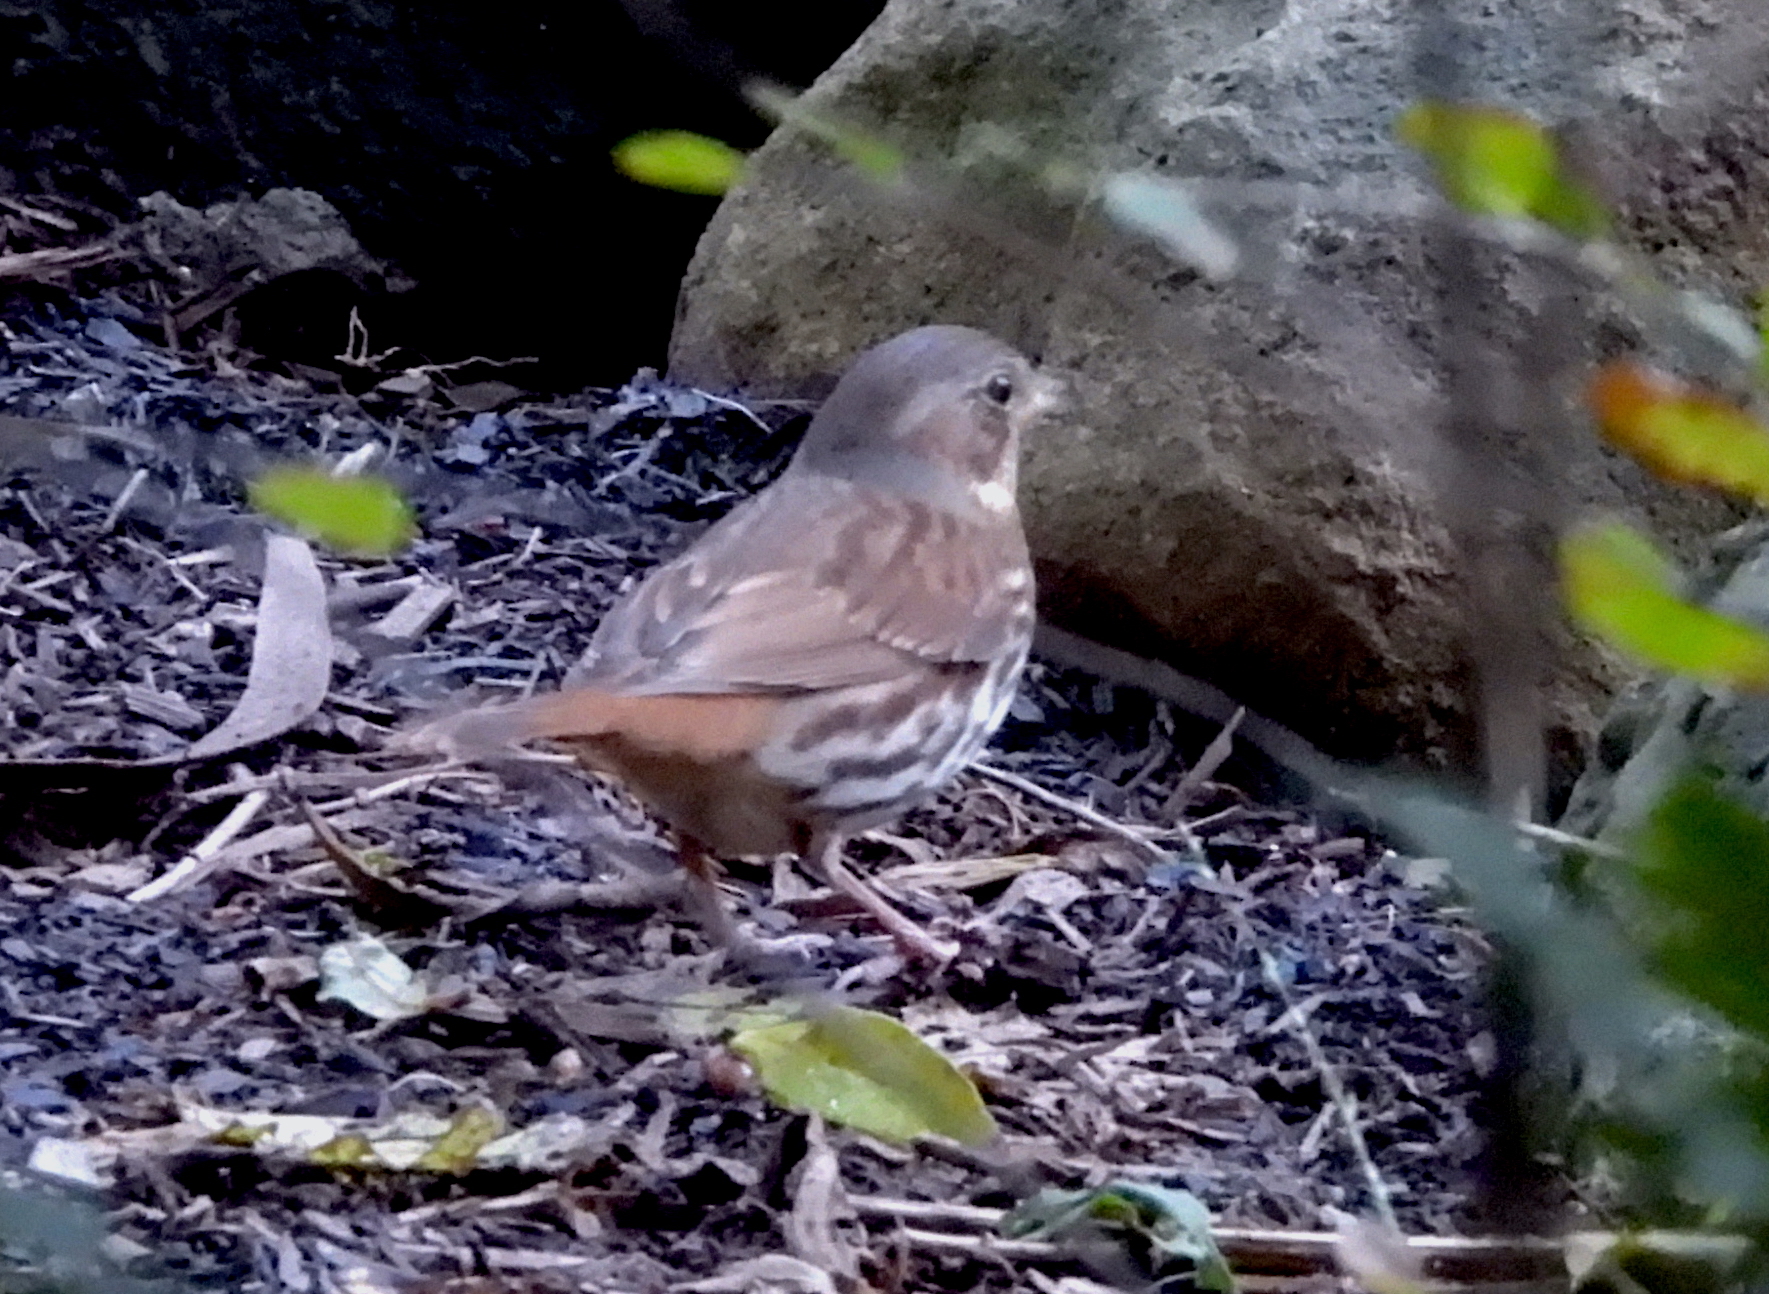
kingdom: Animalia
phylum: Chordata
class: Aves
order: Passeriformes
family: Passerellidae
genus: Passerella
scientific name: Passerella iliaca
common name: Fox sparrow
